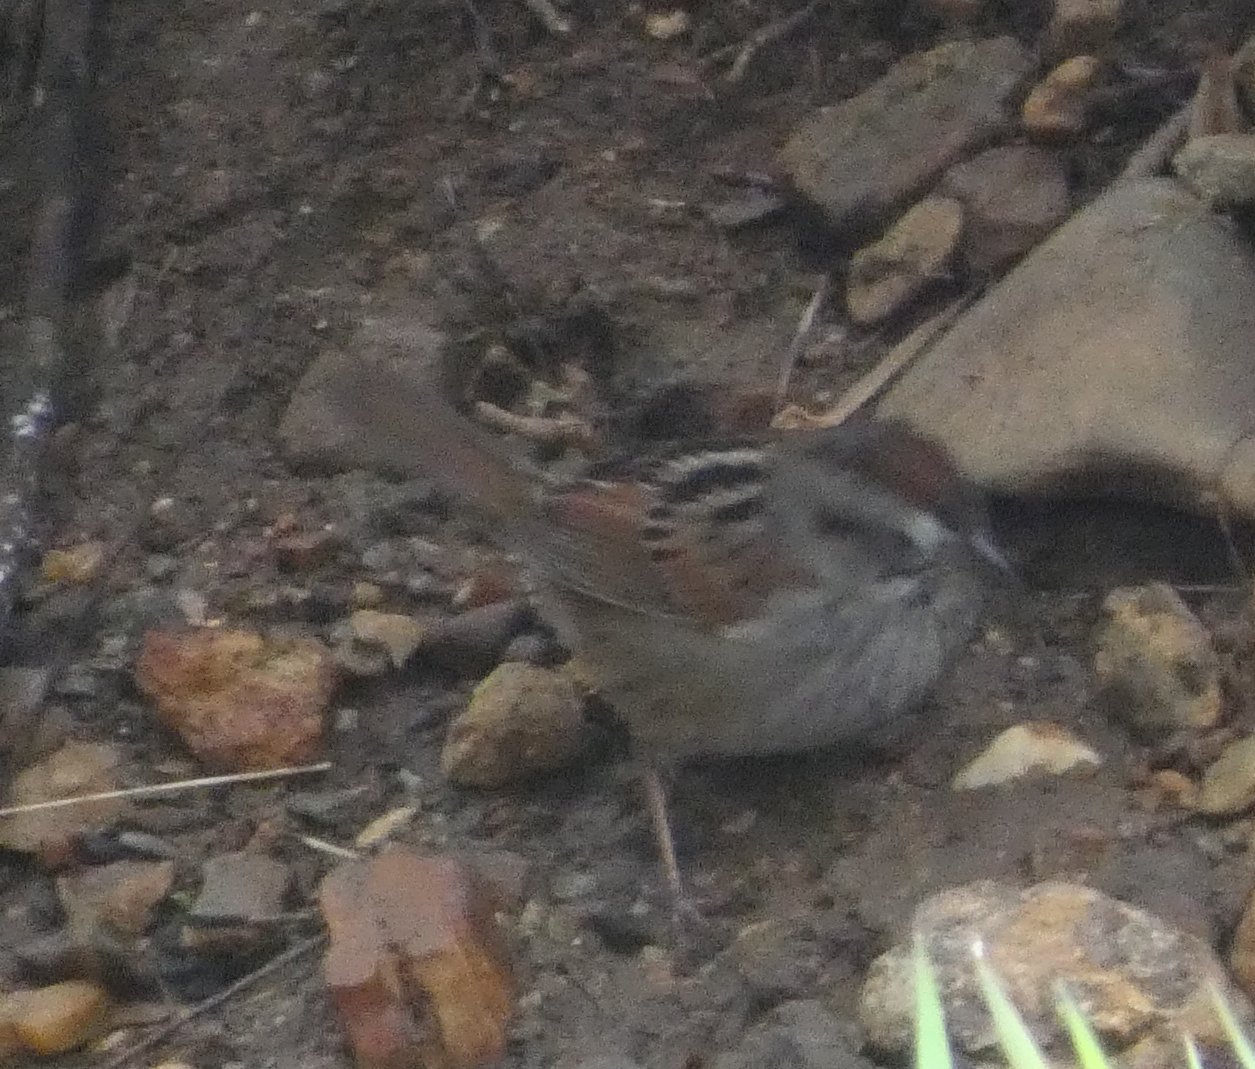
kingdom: Animalia
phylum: Chordata
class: Aves
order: Passeriformes
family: Passerellidae
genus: Melospiza
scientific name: Melospiza georgiana
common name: Swamp sparrow
